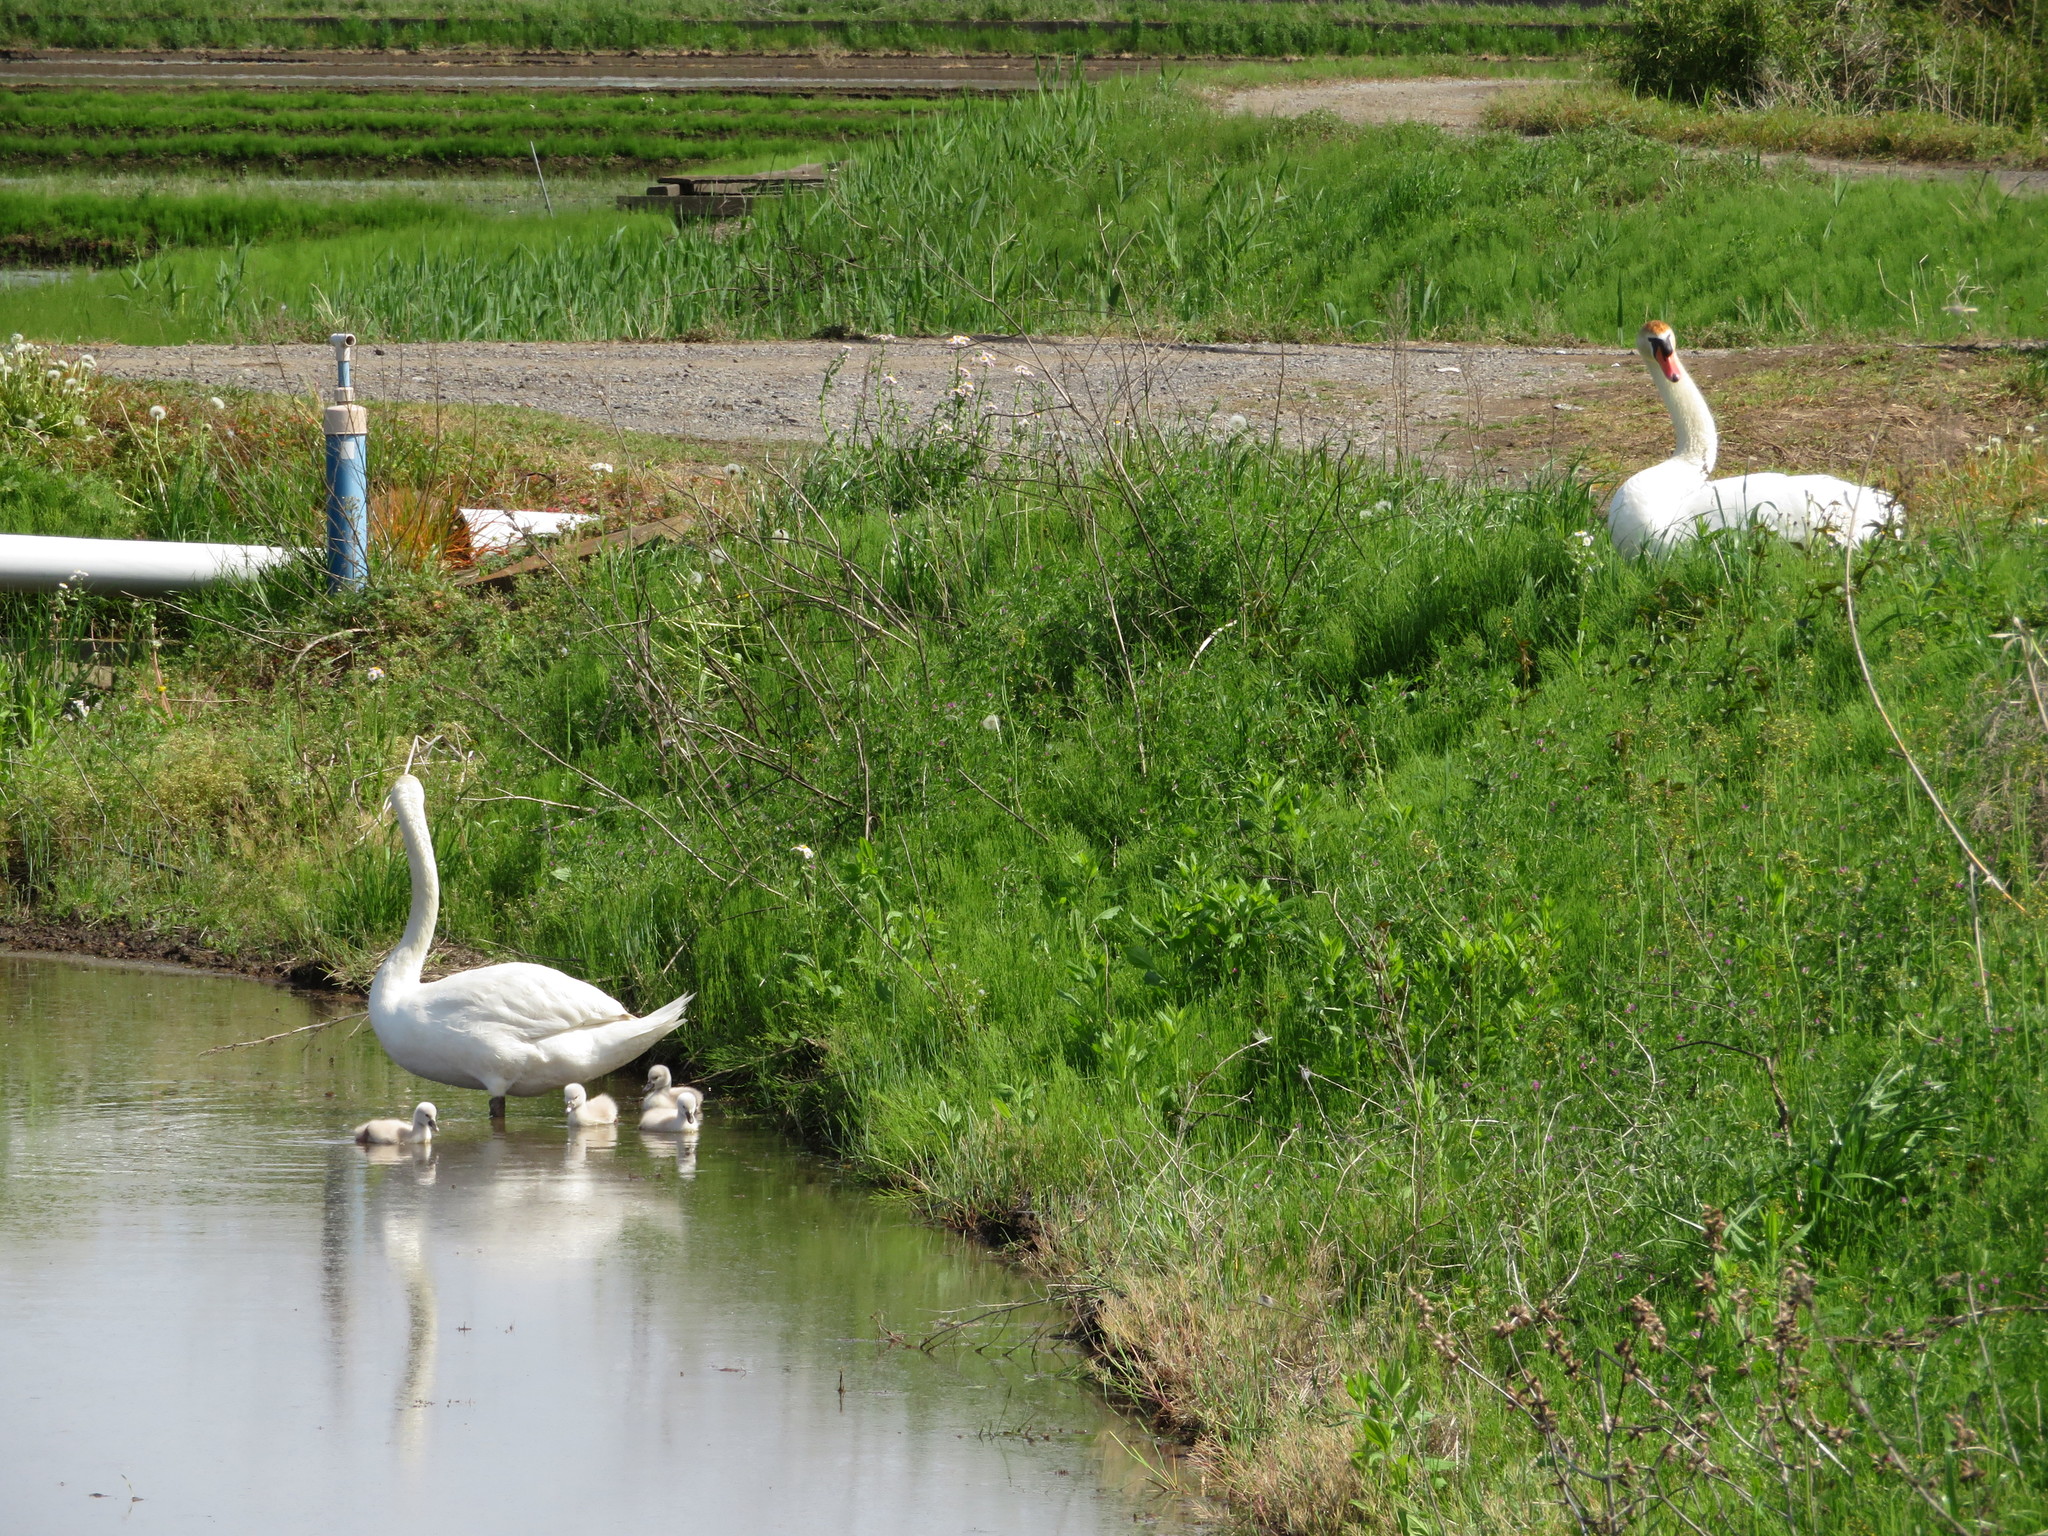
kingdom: Animalia
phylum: Chordata
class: Aves
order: Anseriformes
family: Anatidae
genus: Cygnus
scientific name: Cygnus olor
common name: Mute swan
